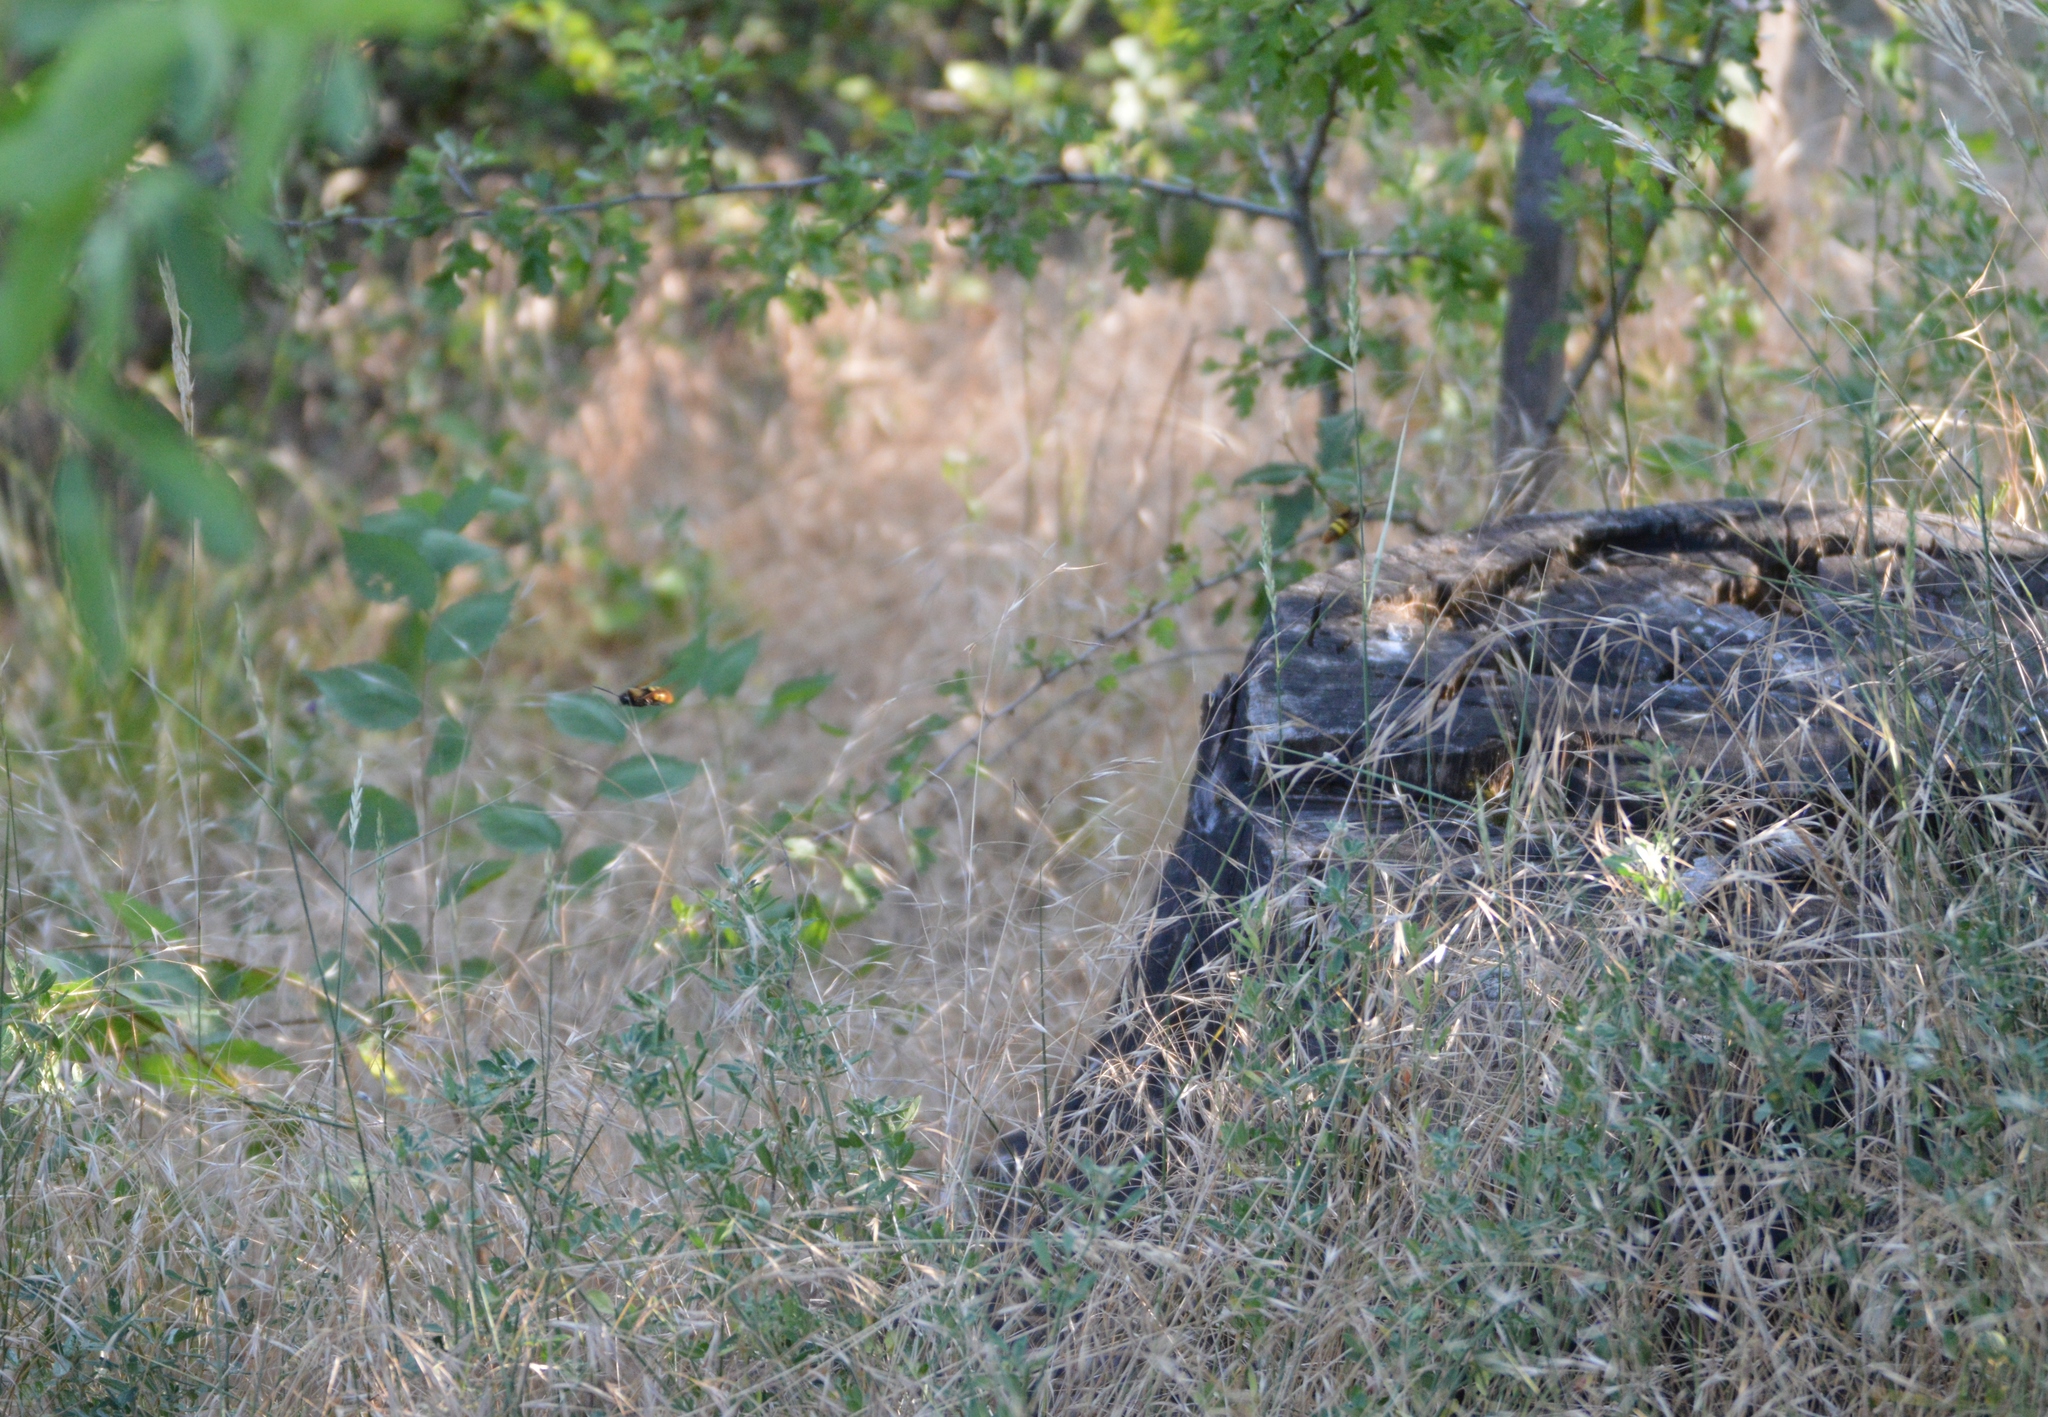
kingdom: Animalia
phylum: Arthropoda
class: Insecta
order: Hymenoptera
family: Scoliidae
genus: Megascolia
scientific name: Megascolia maculata
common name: Mammoth wasp
